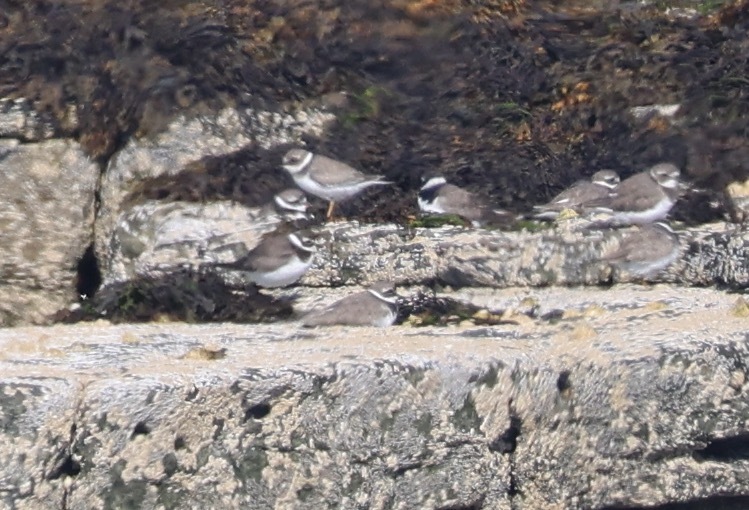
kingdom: Animalia
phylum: Chordata
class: Aves
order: Charadriiformes
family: Charadriidae
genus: Charadrius
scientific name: Charadrius hiaticula
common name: Common ringed plover
